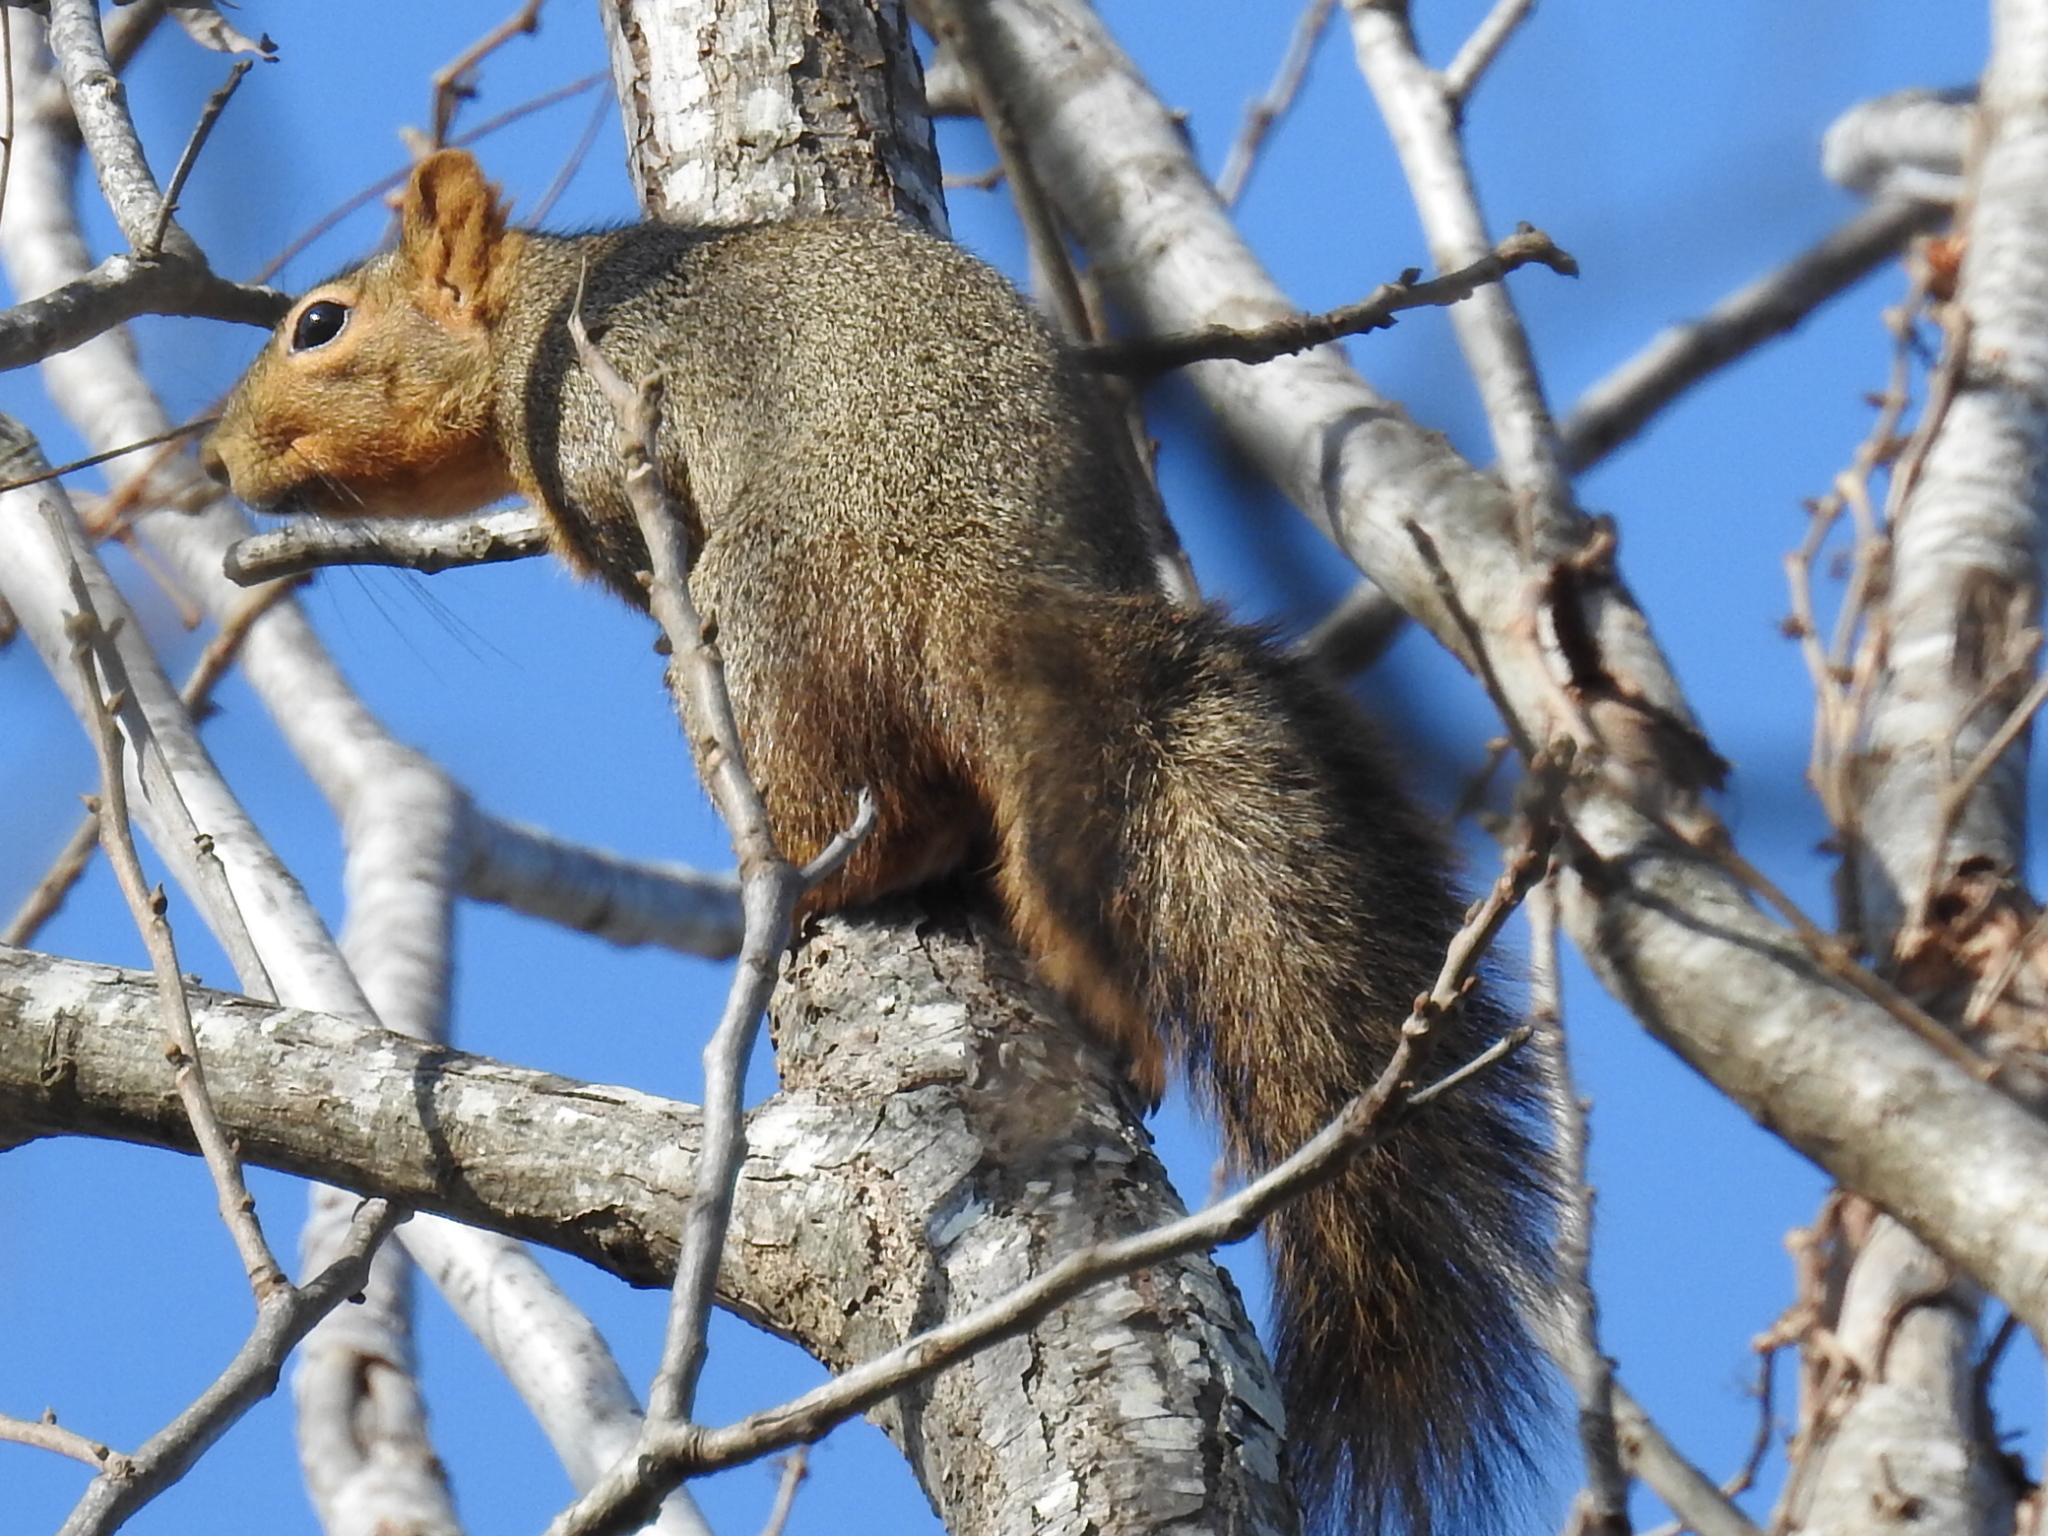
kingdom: Animalia
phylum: Chordata
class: Mammalia
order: Rodentia
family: Sciuridae
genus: Sciurus
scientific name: Sciurus niger
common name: Fox squirrel
